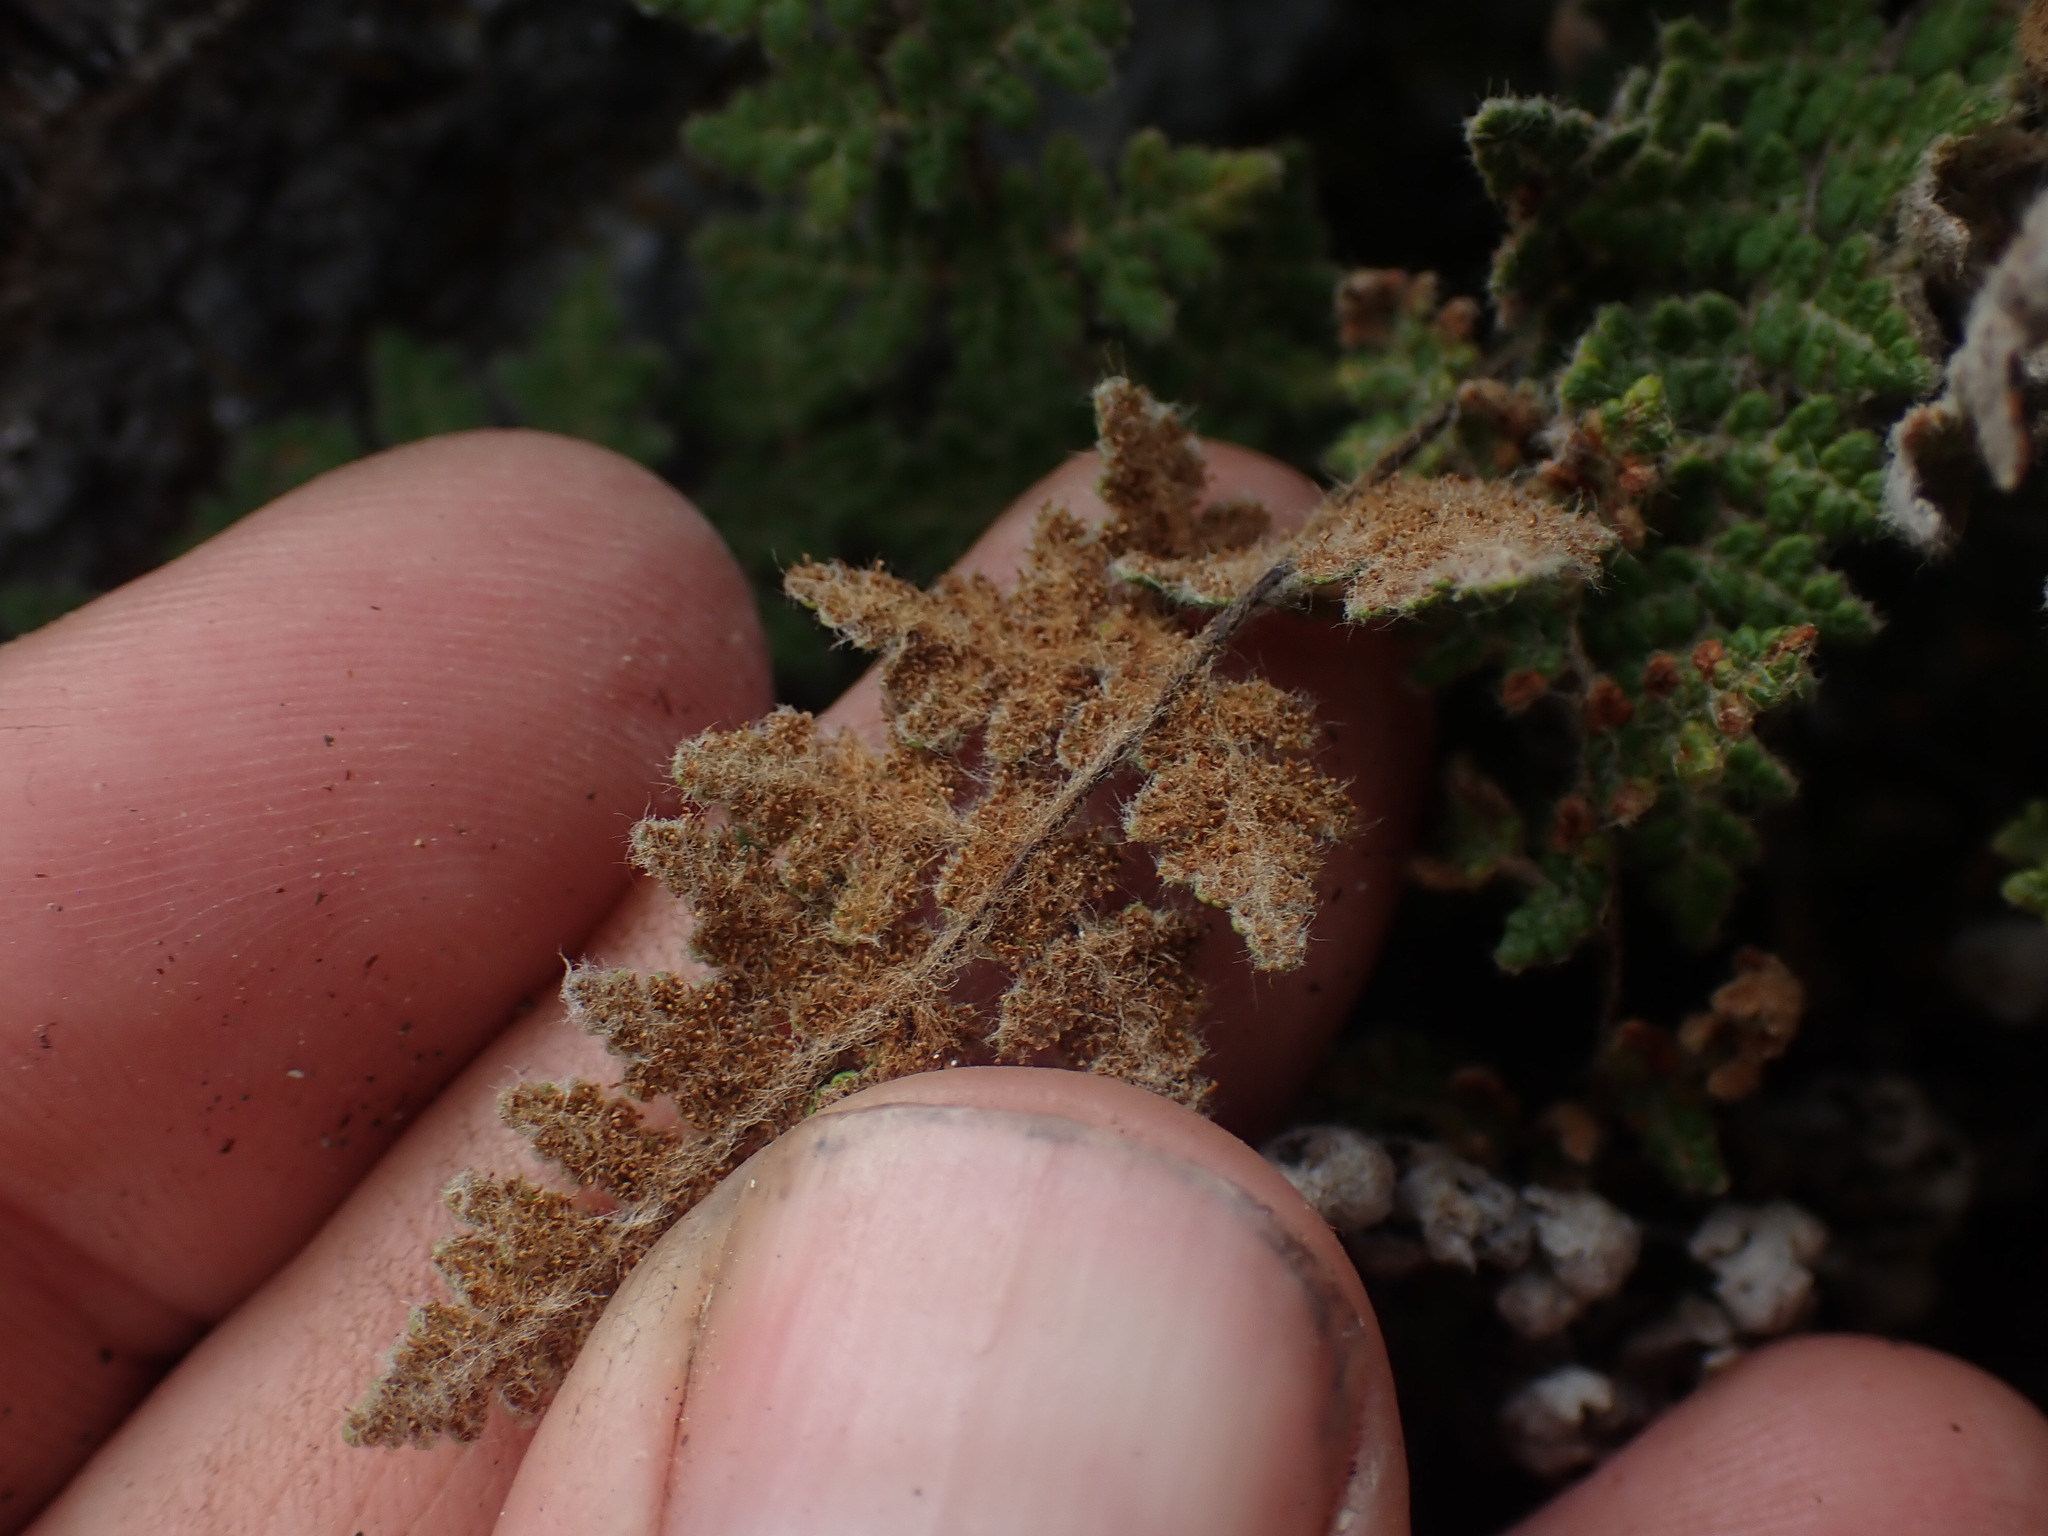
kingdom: Plantae
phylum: Tracheophyta
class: Polypodiopsida
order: Polypodiales
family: Pteridaceae
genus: Myriopteris
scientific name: Myriopteris gracilis
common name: Fee's lip fern
